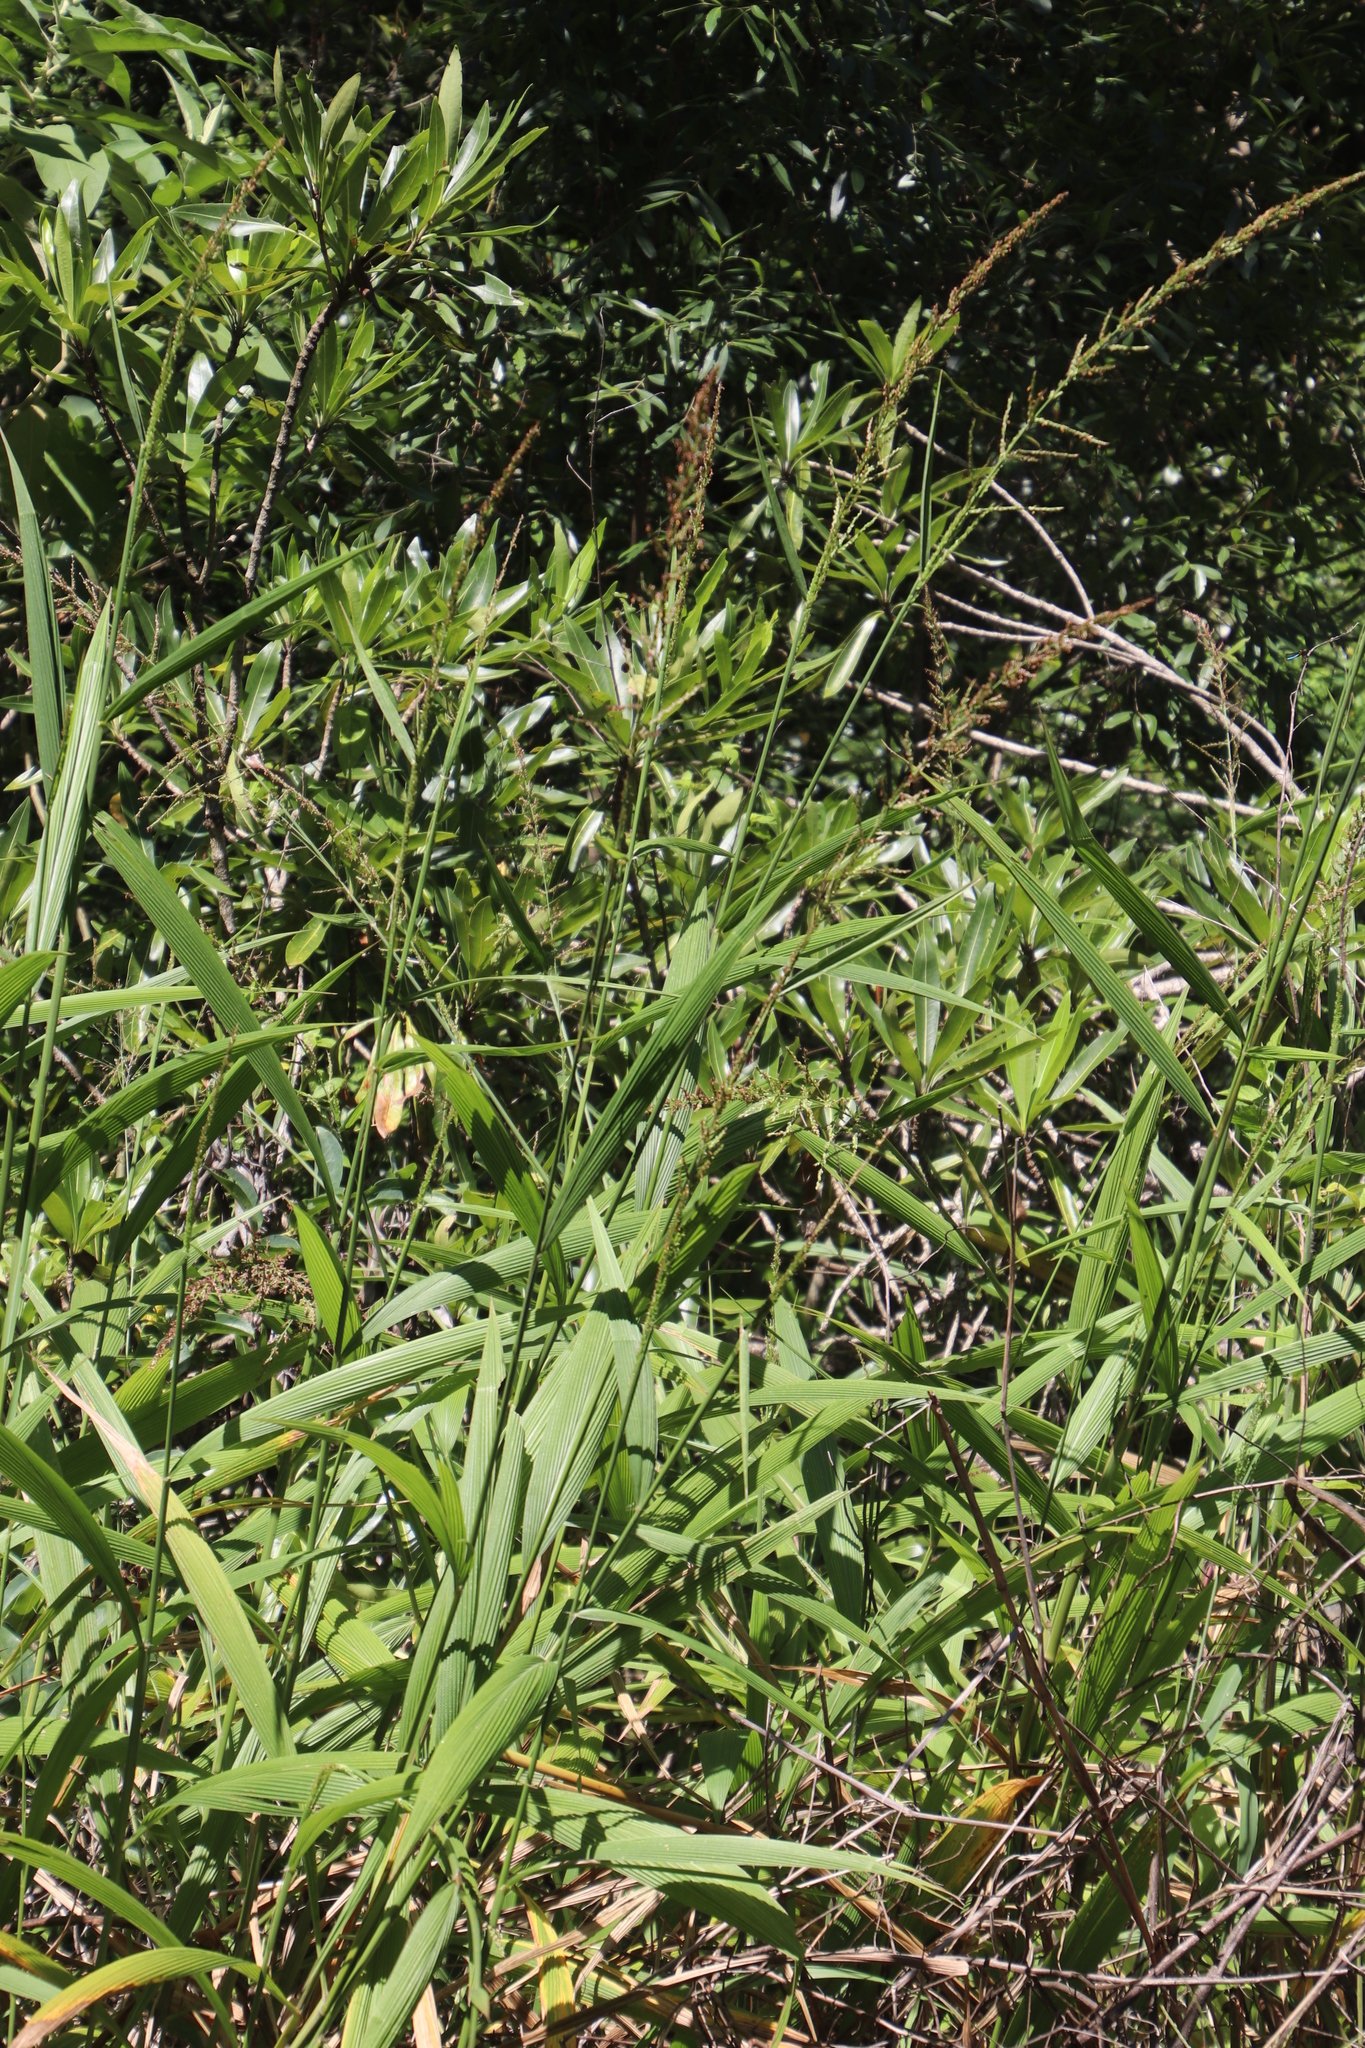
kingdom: Plantae
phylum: Tracheophyta
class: Liliopsida
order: Poales
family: Poaceae
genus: Setaria
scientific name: Setaria megaphylla
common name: Bigleaf bristlegrass
